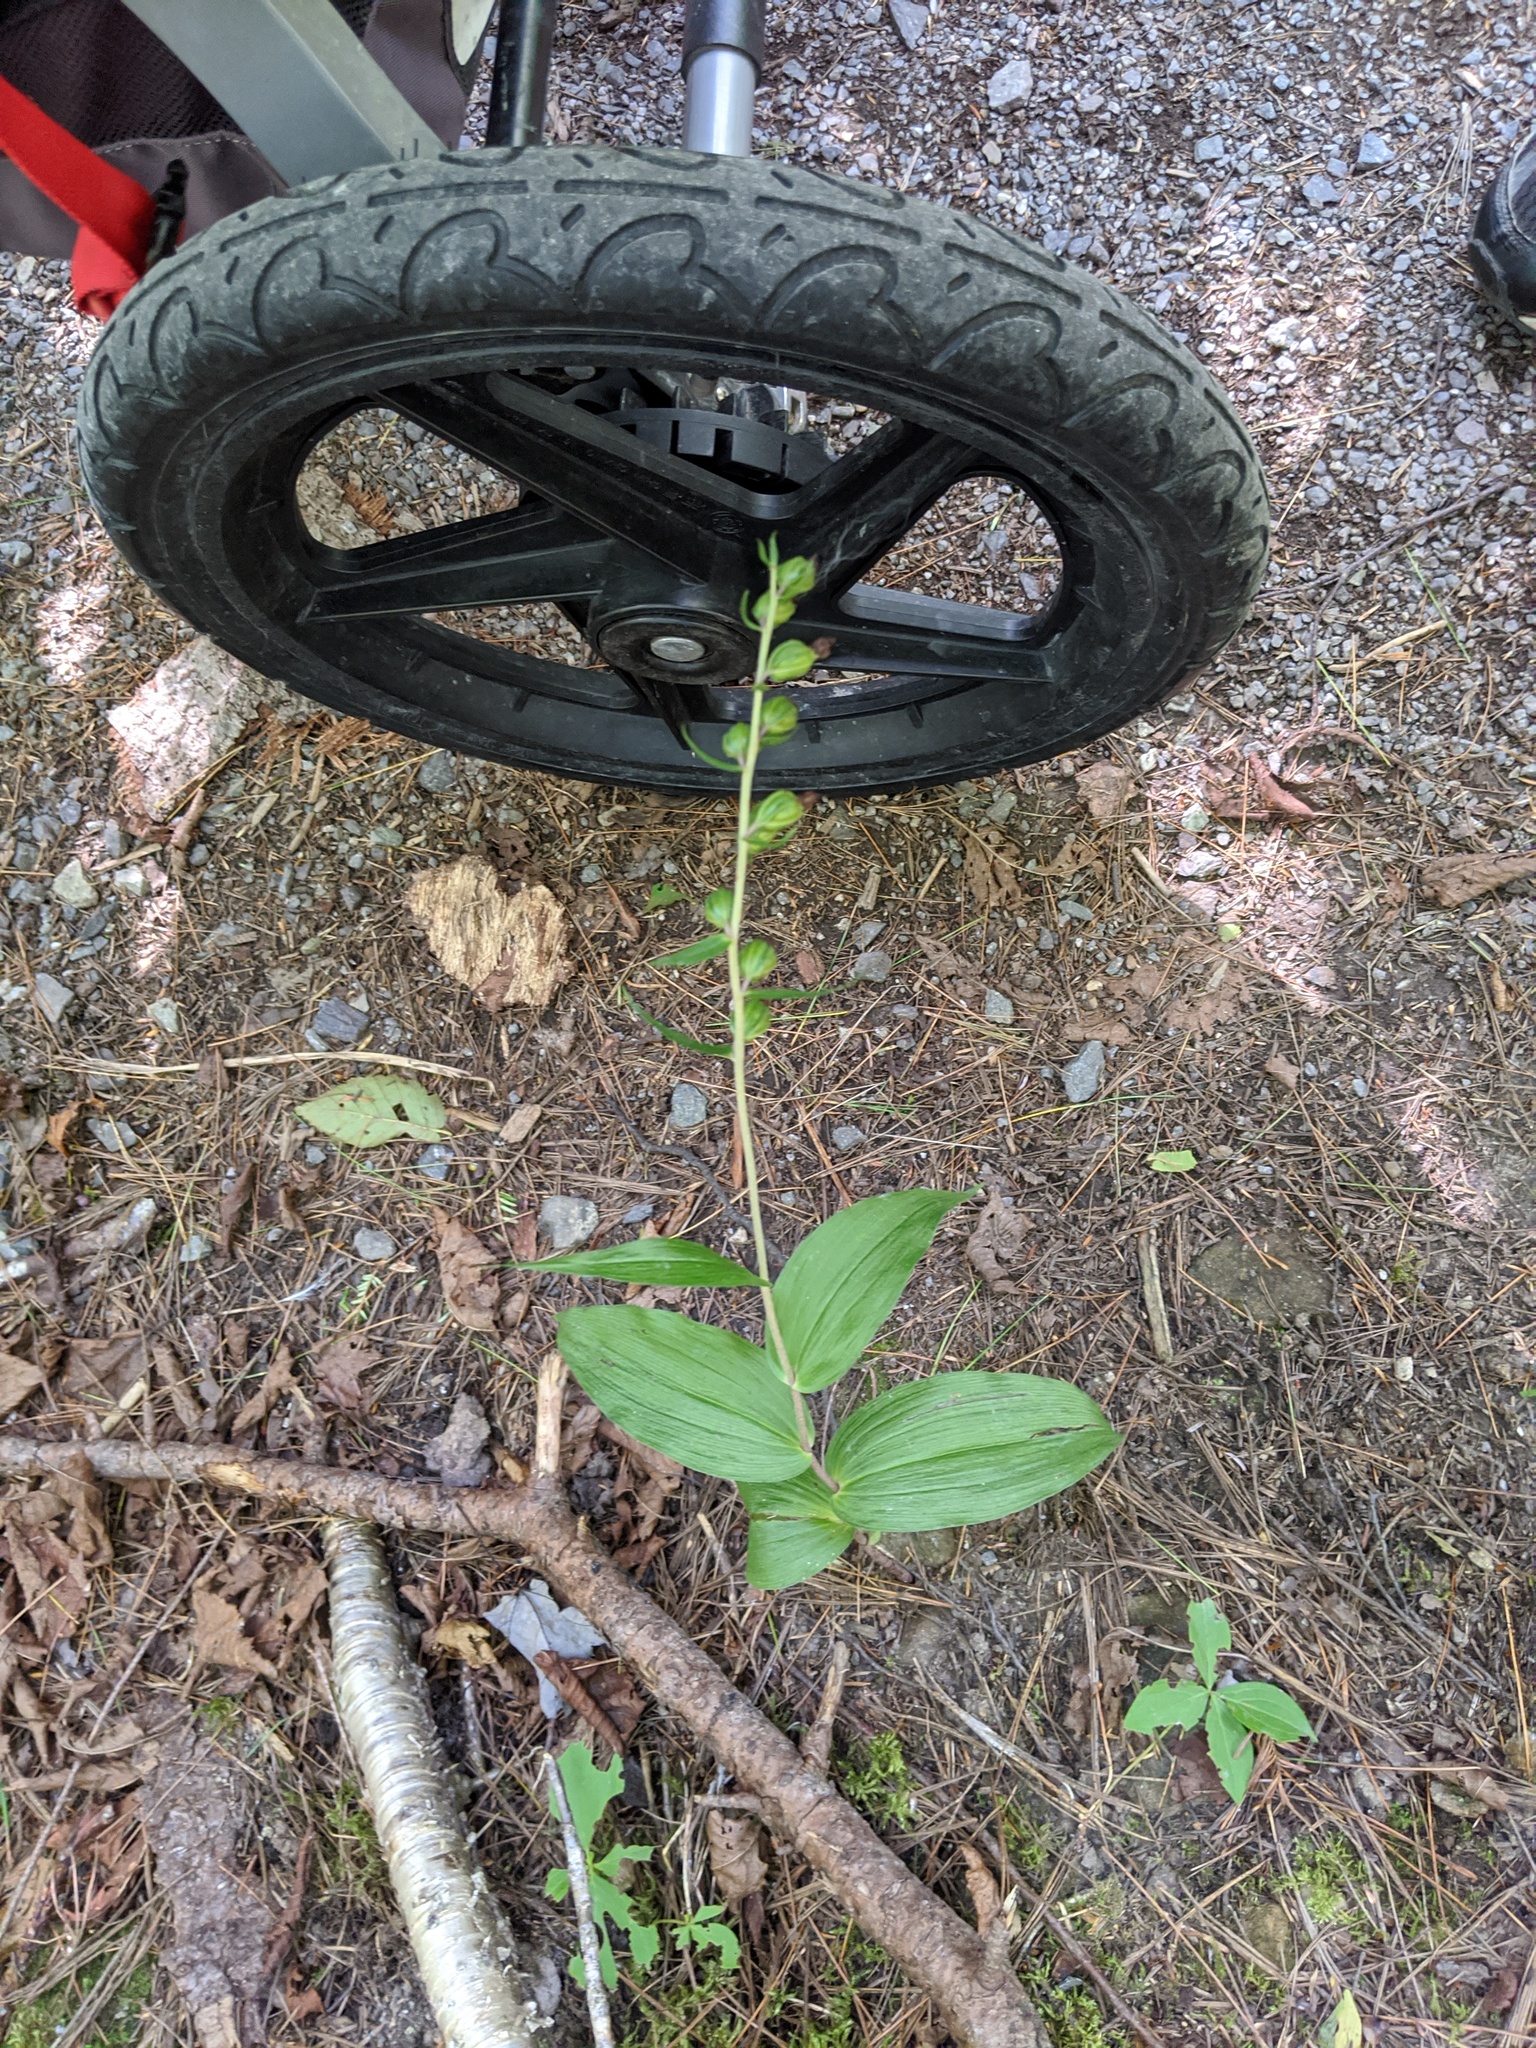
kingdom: Plantae
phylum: Tracheophyta
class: Liliopsida
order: Asparagales
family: Orchidaceae
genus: Epipactis
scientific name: Epipactis helleborine
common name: Broad-leaved helleborine
